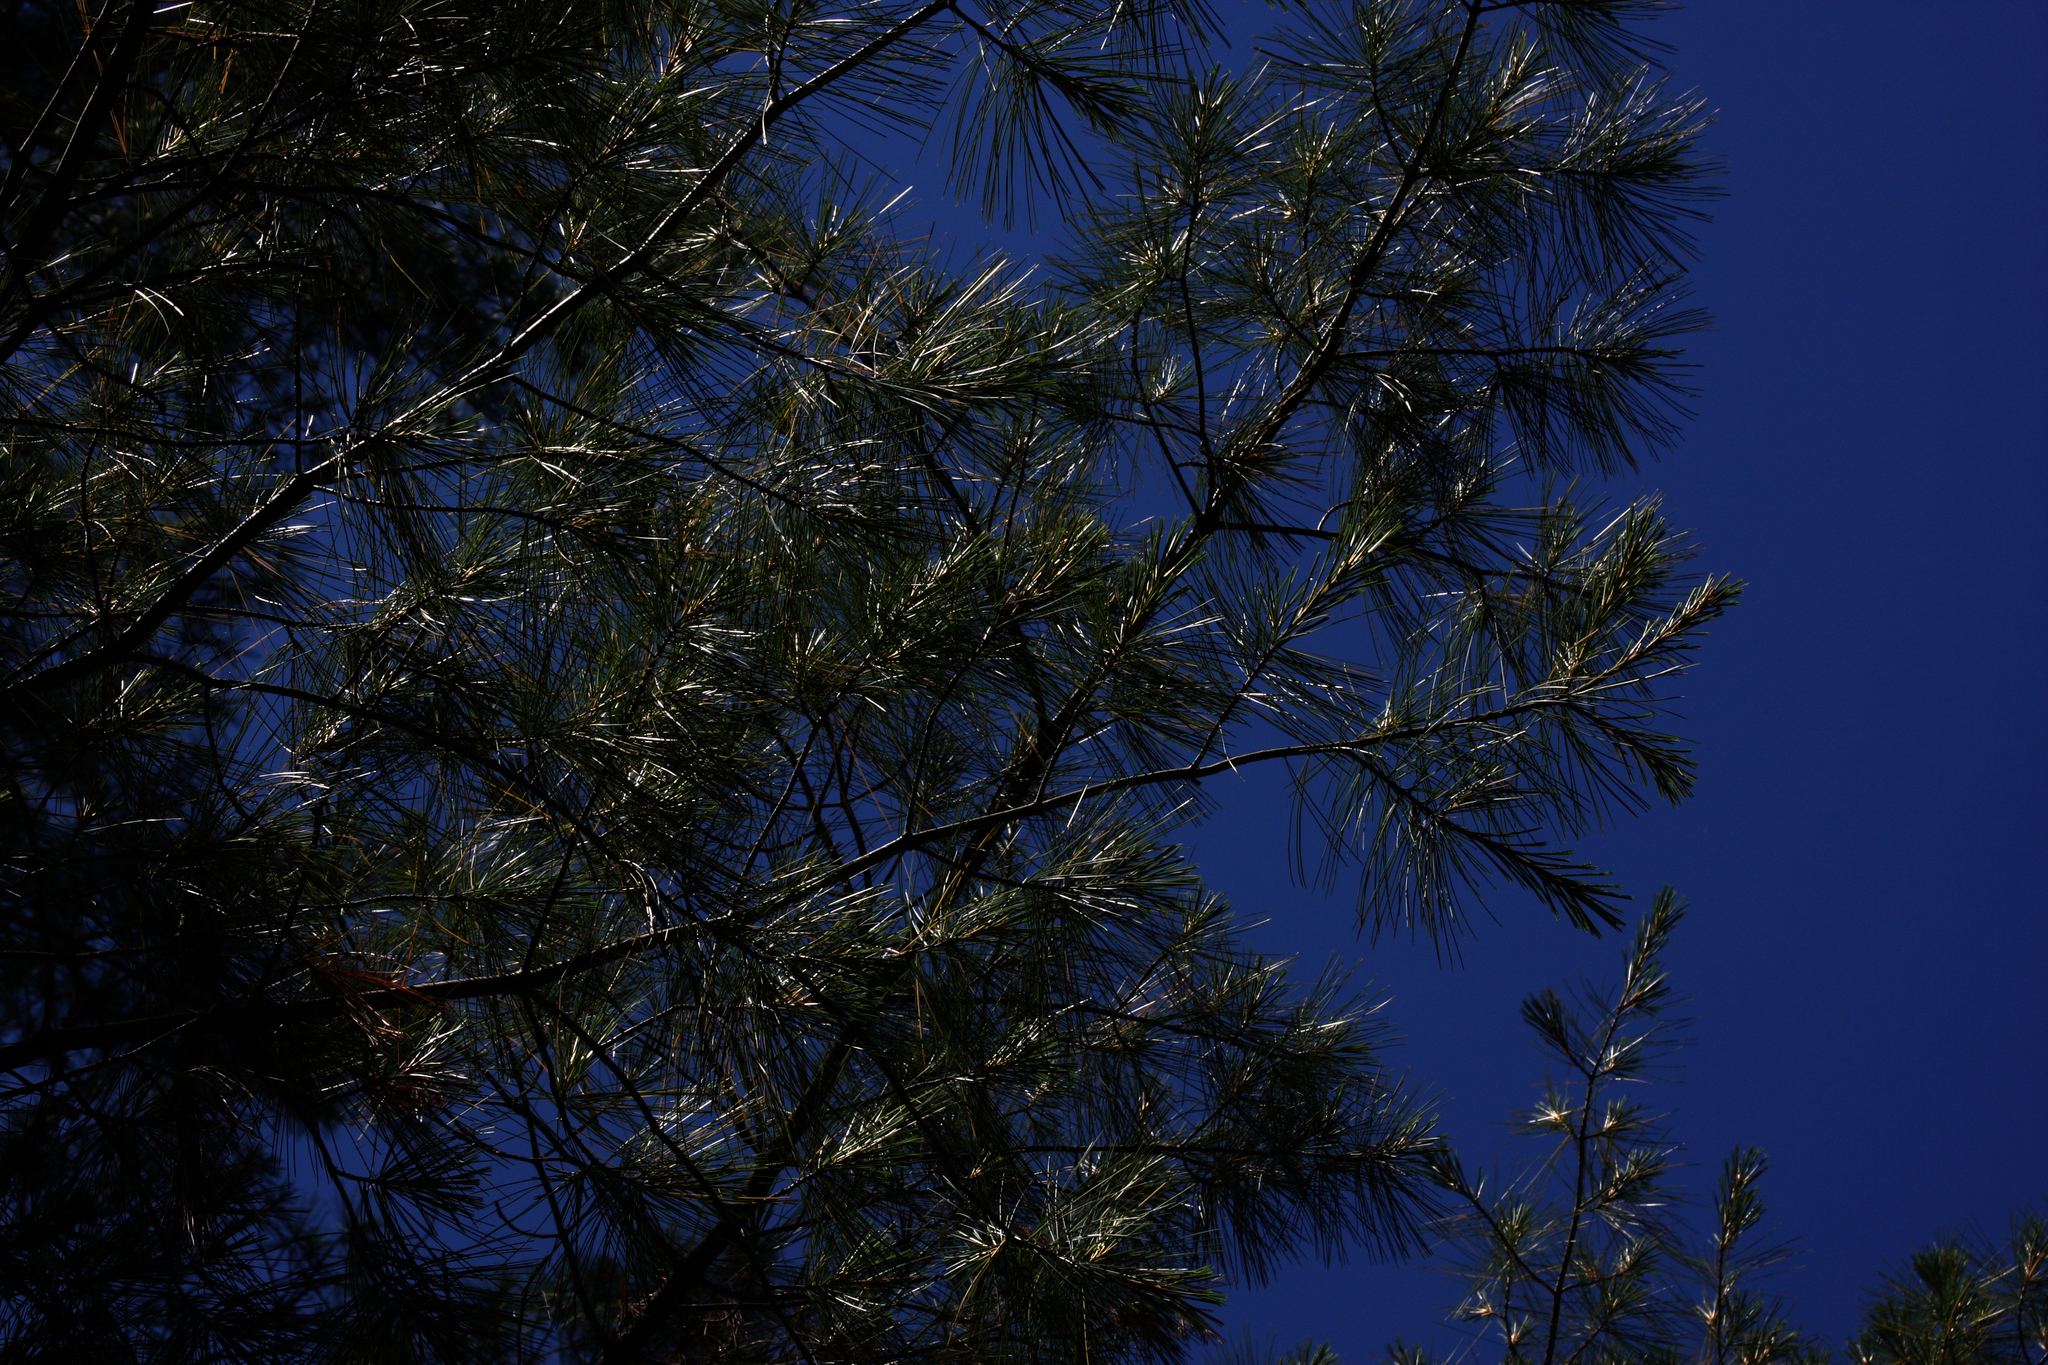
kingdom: Plantae
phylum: Tracheophyta
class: Pinopsida
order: Pinales
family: Pinaceae
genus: Pinus
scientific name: Pinus strobus
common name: Weymouth pine
